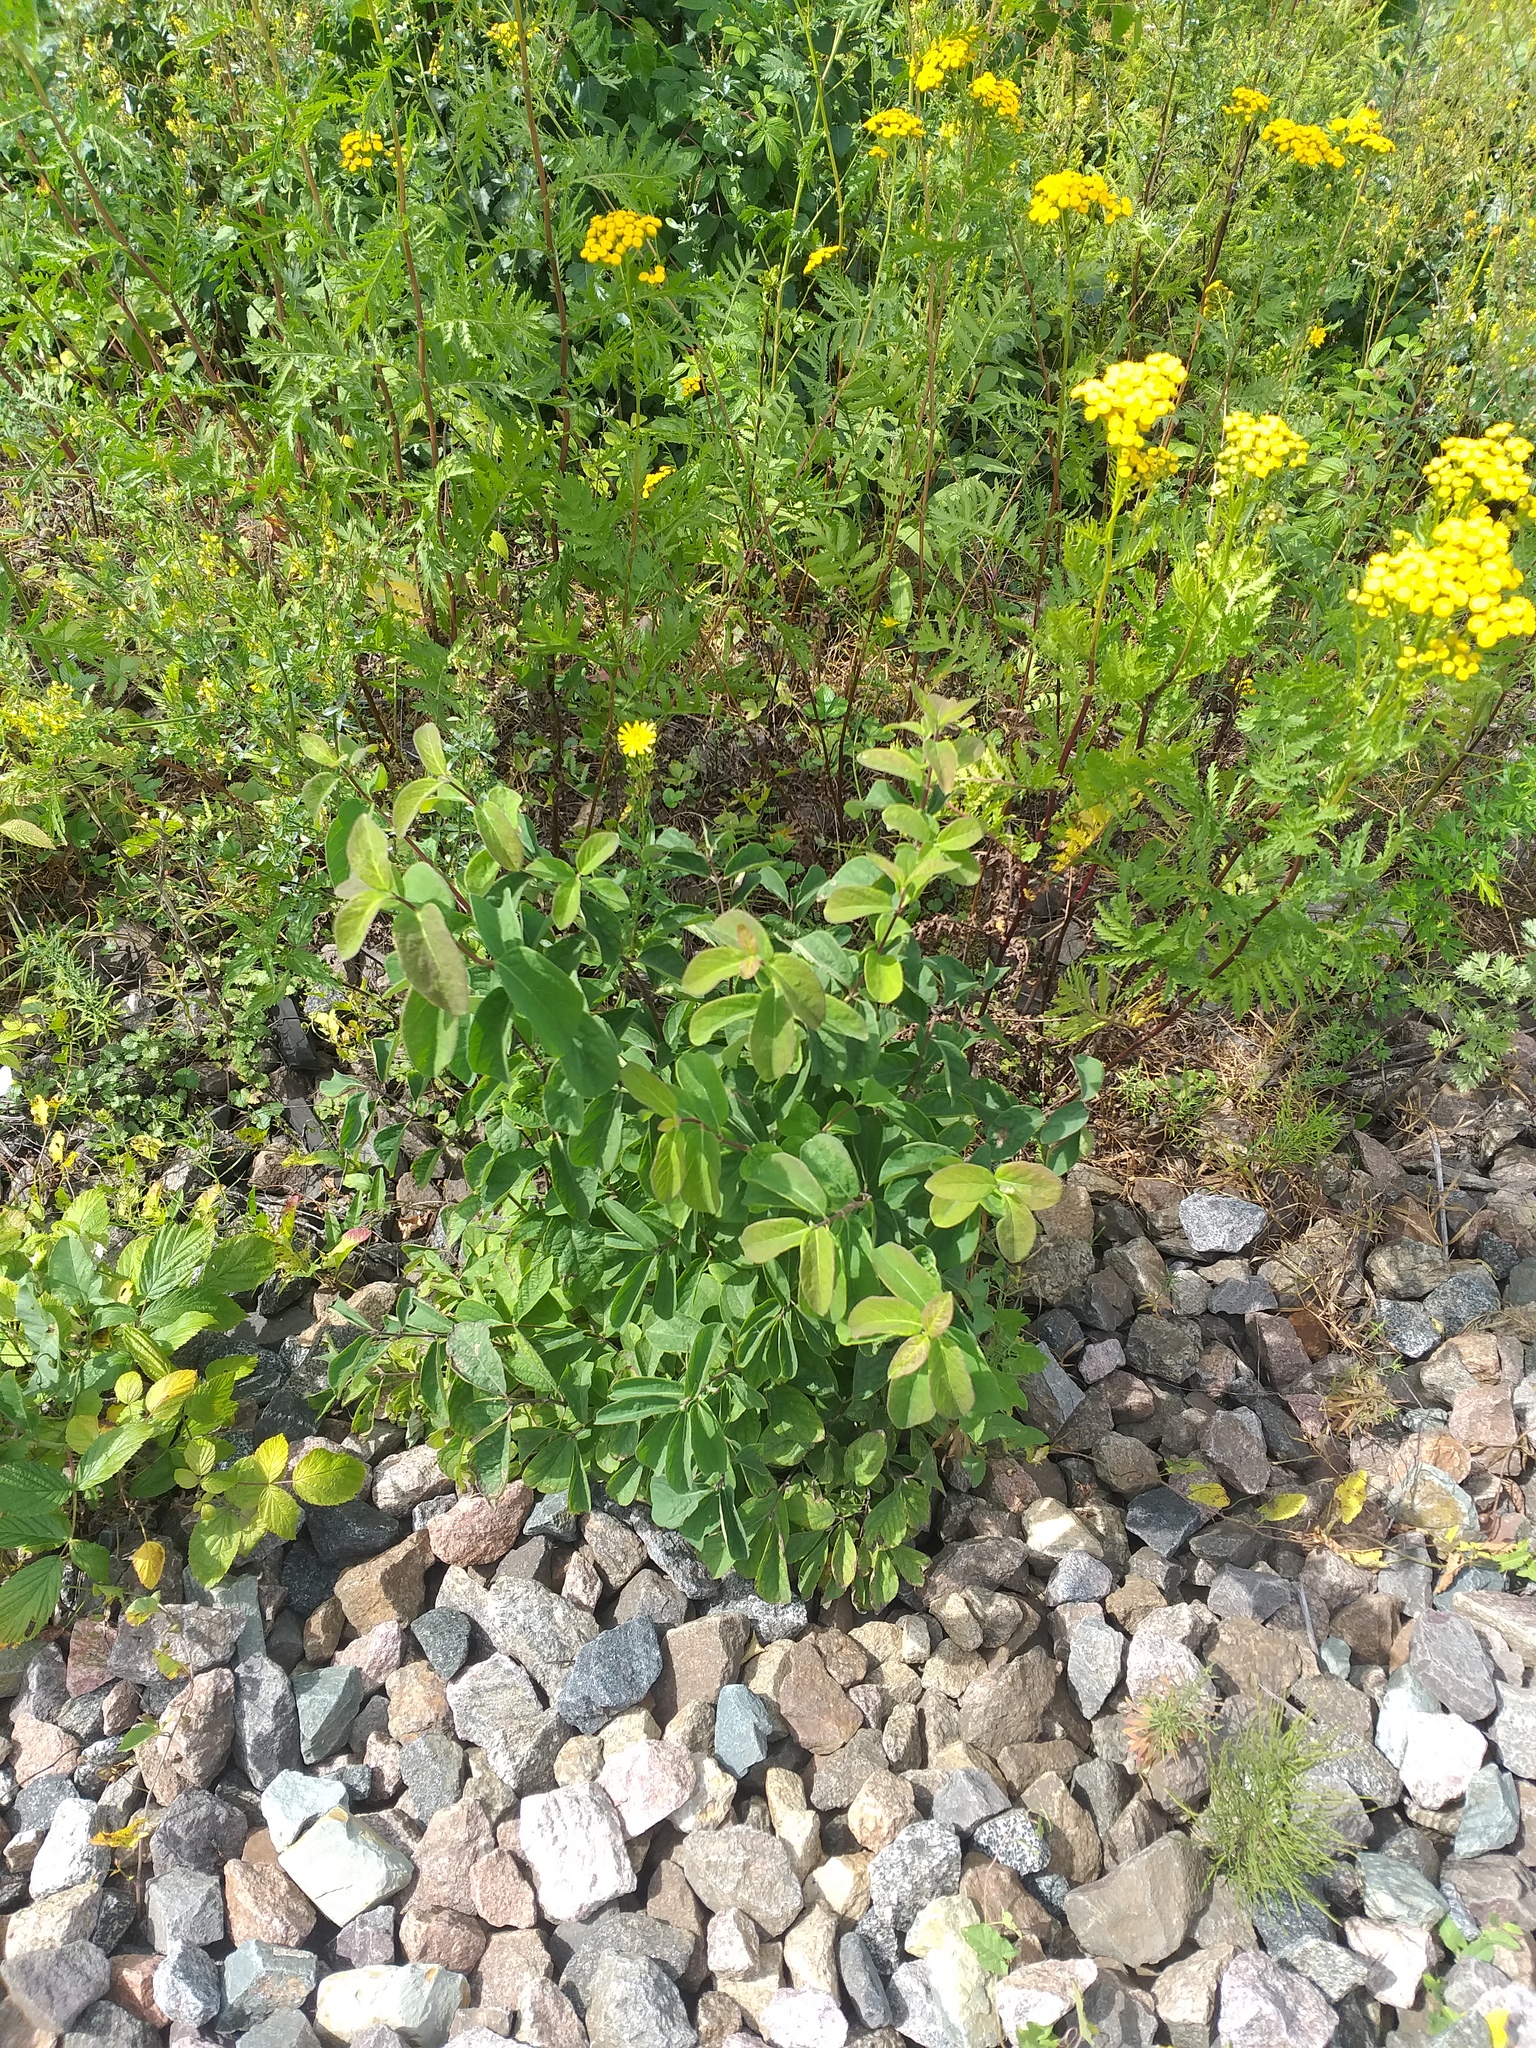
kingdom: Plantae
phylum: Tracheophyta
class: Magnoliopsida
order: Dipsacales
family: Caprifoliaceae
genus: Lonicera
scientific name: Lonicera xylosteum
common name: Fly honeysuckle
